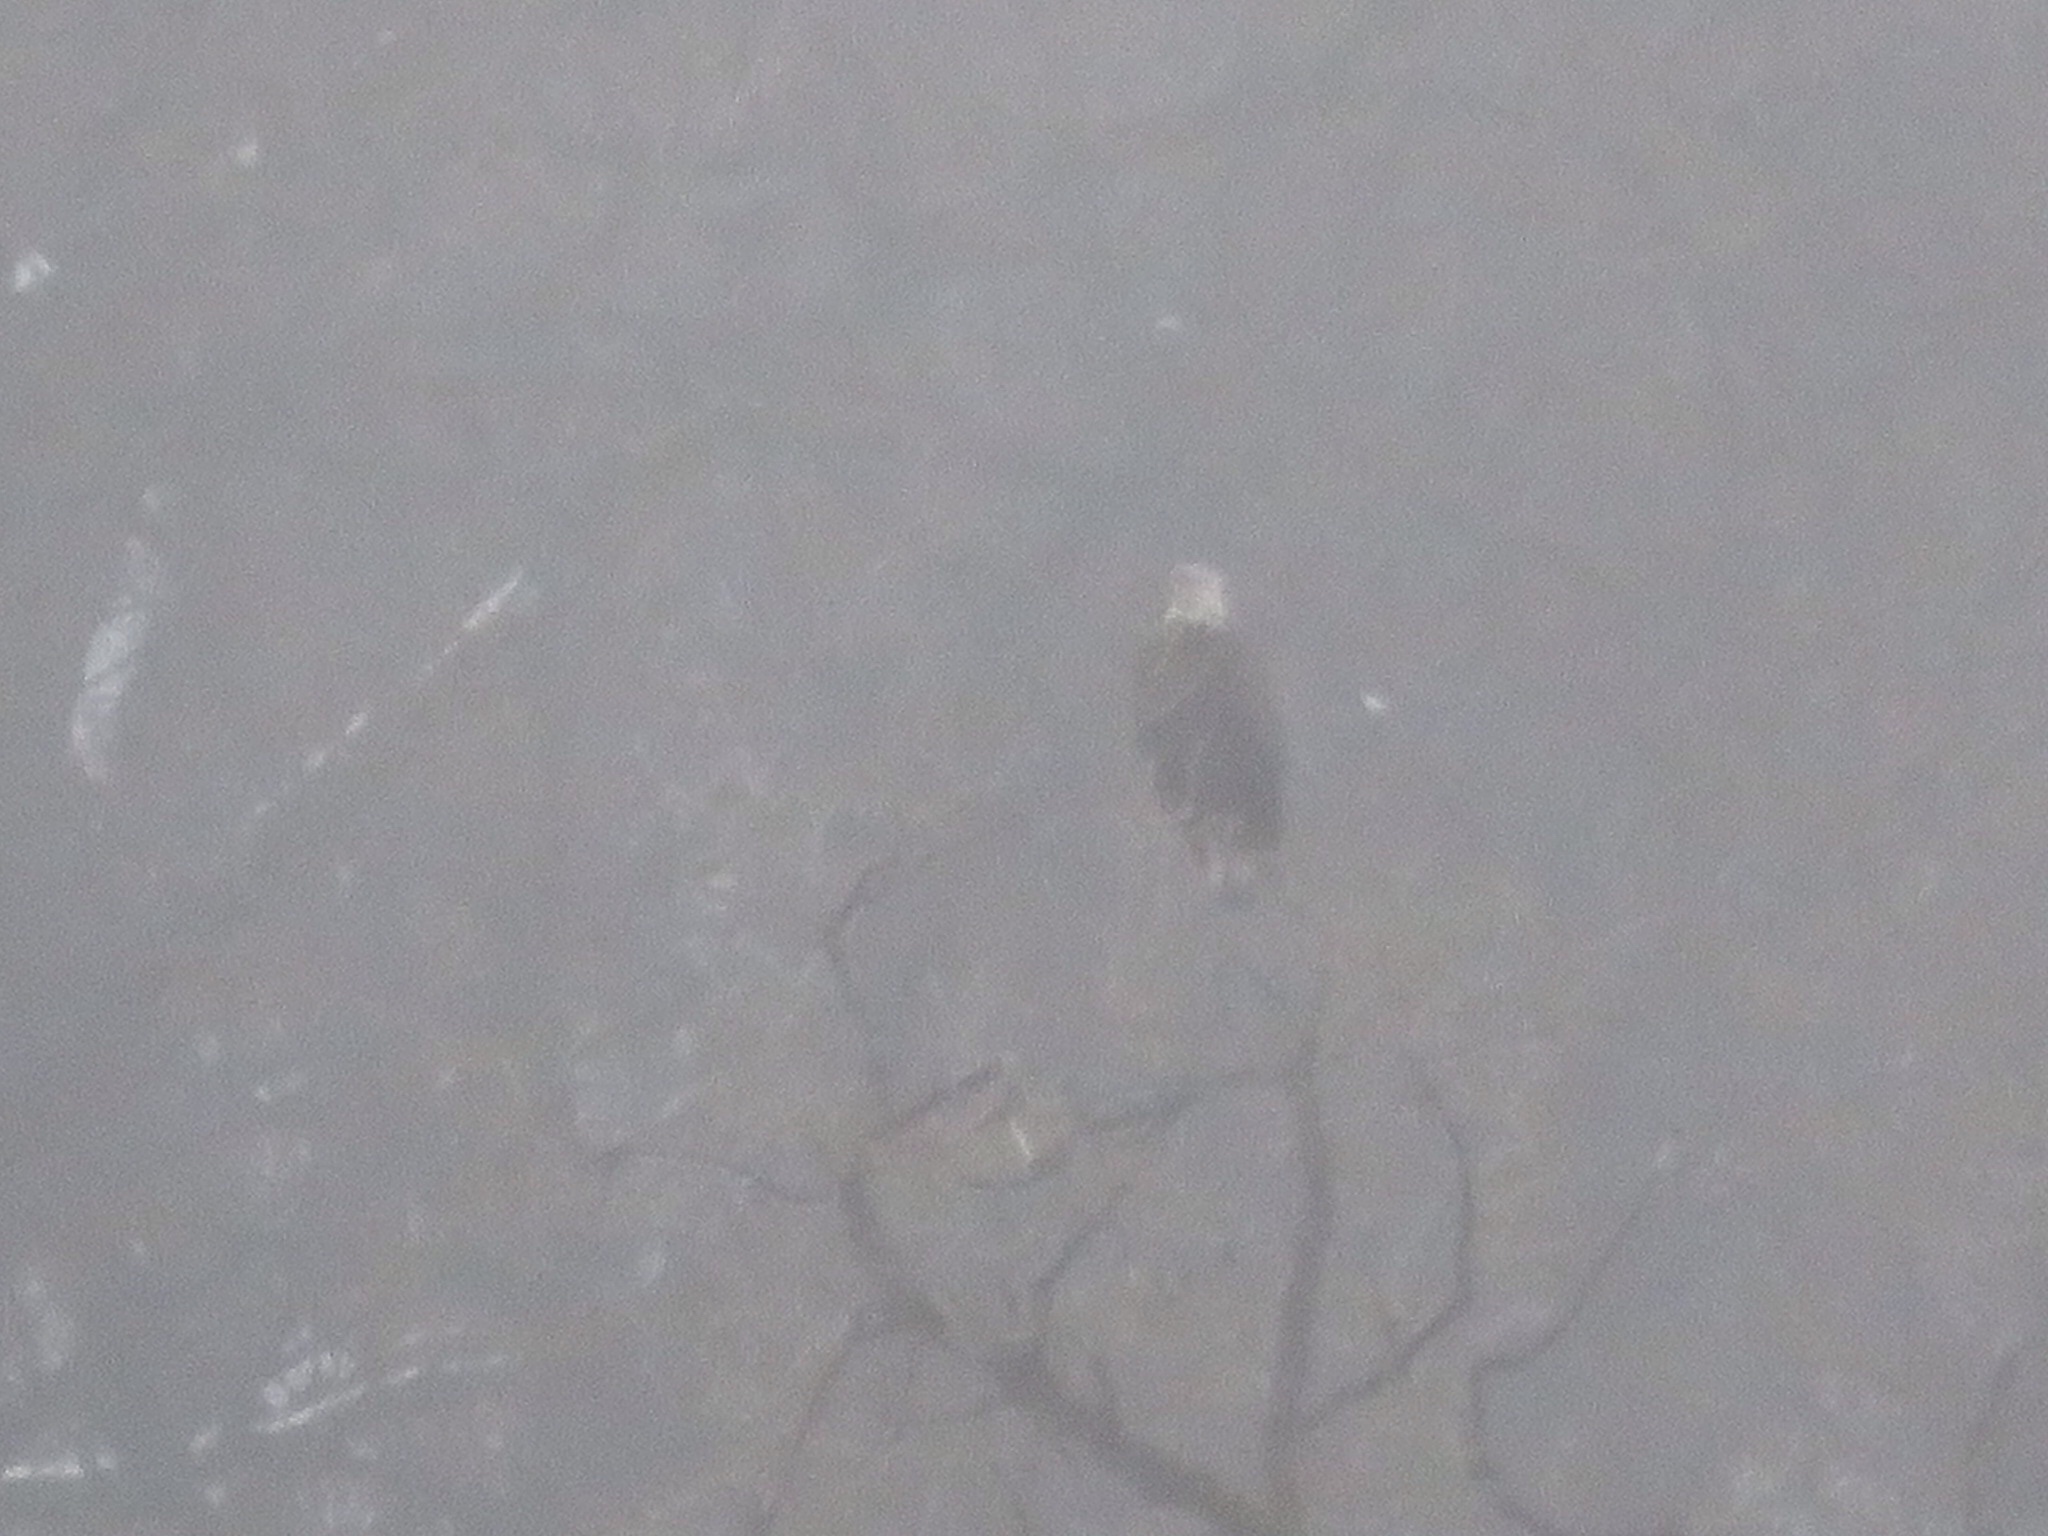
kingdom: Animalia
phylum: Chordata
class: Aves
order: Accipitriformes
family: Accipitridae
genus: Haliaeetus
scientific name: Haliaeetus leucocephalus
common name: Bald eagle
